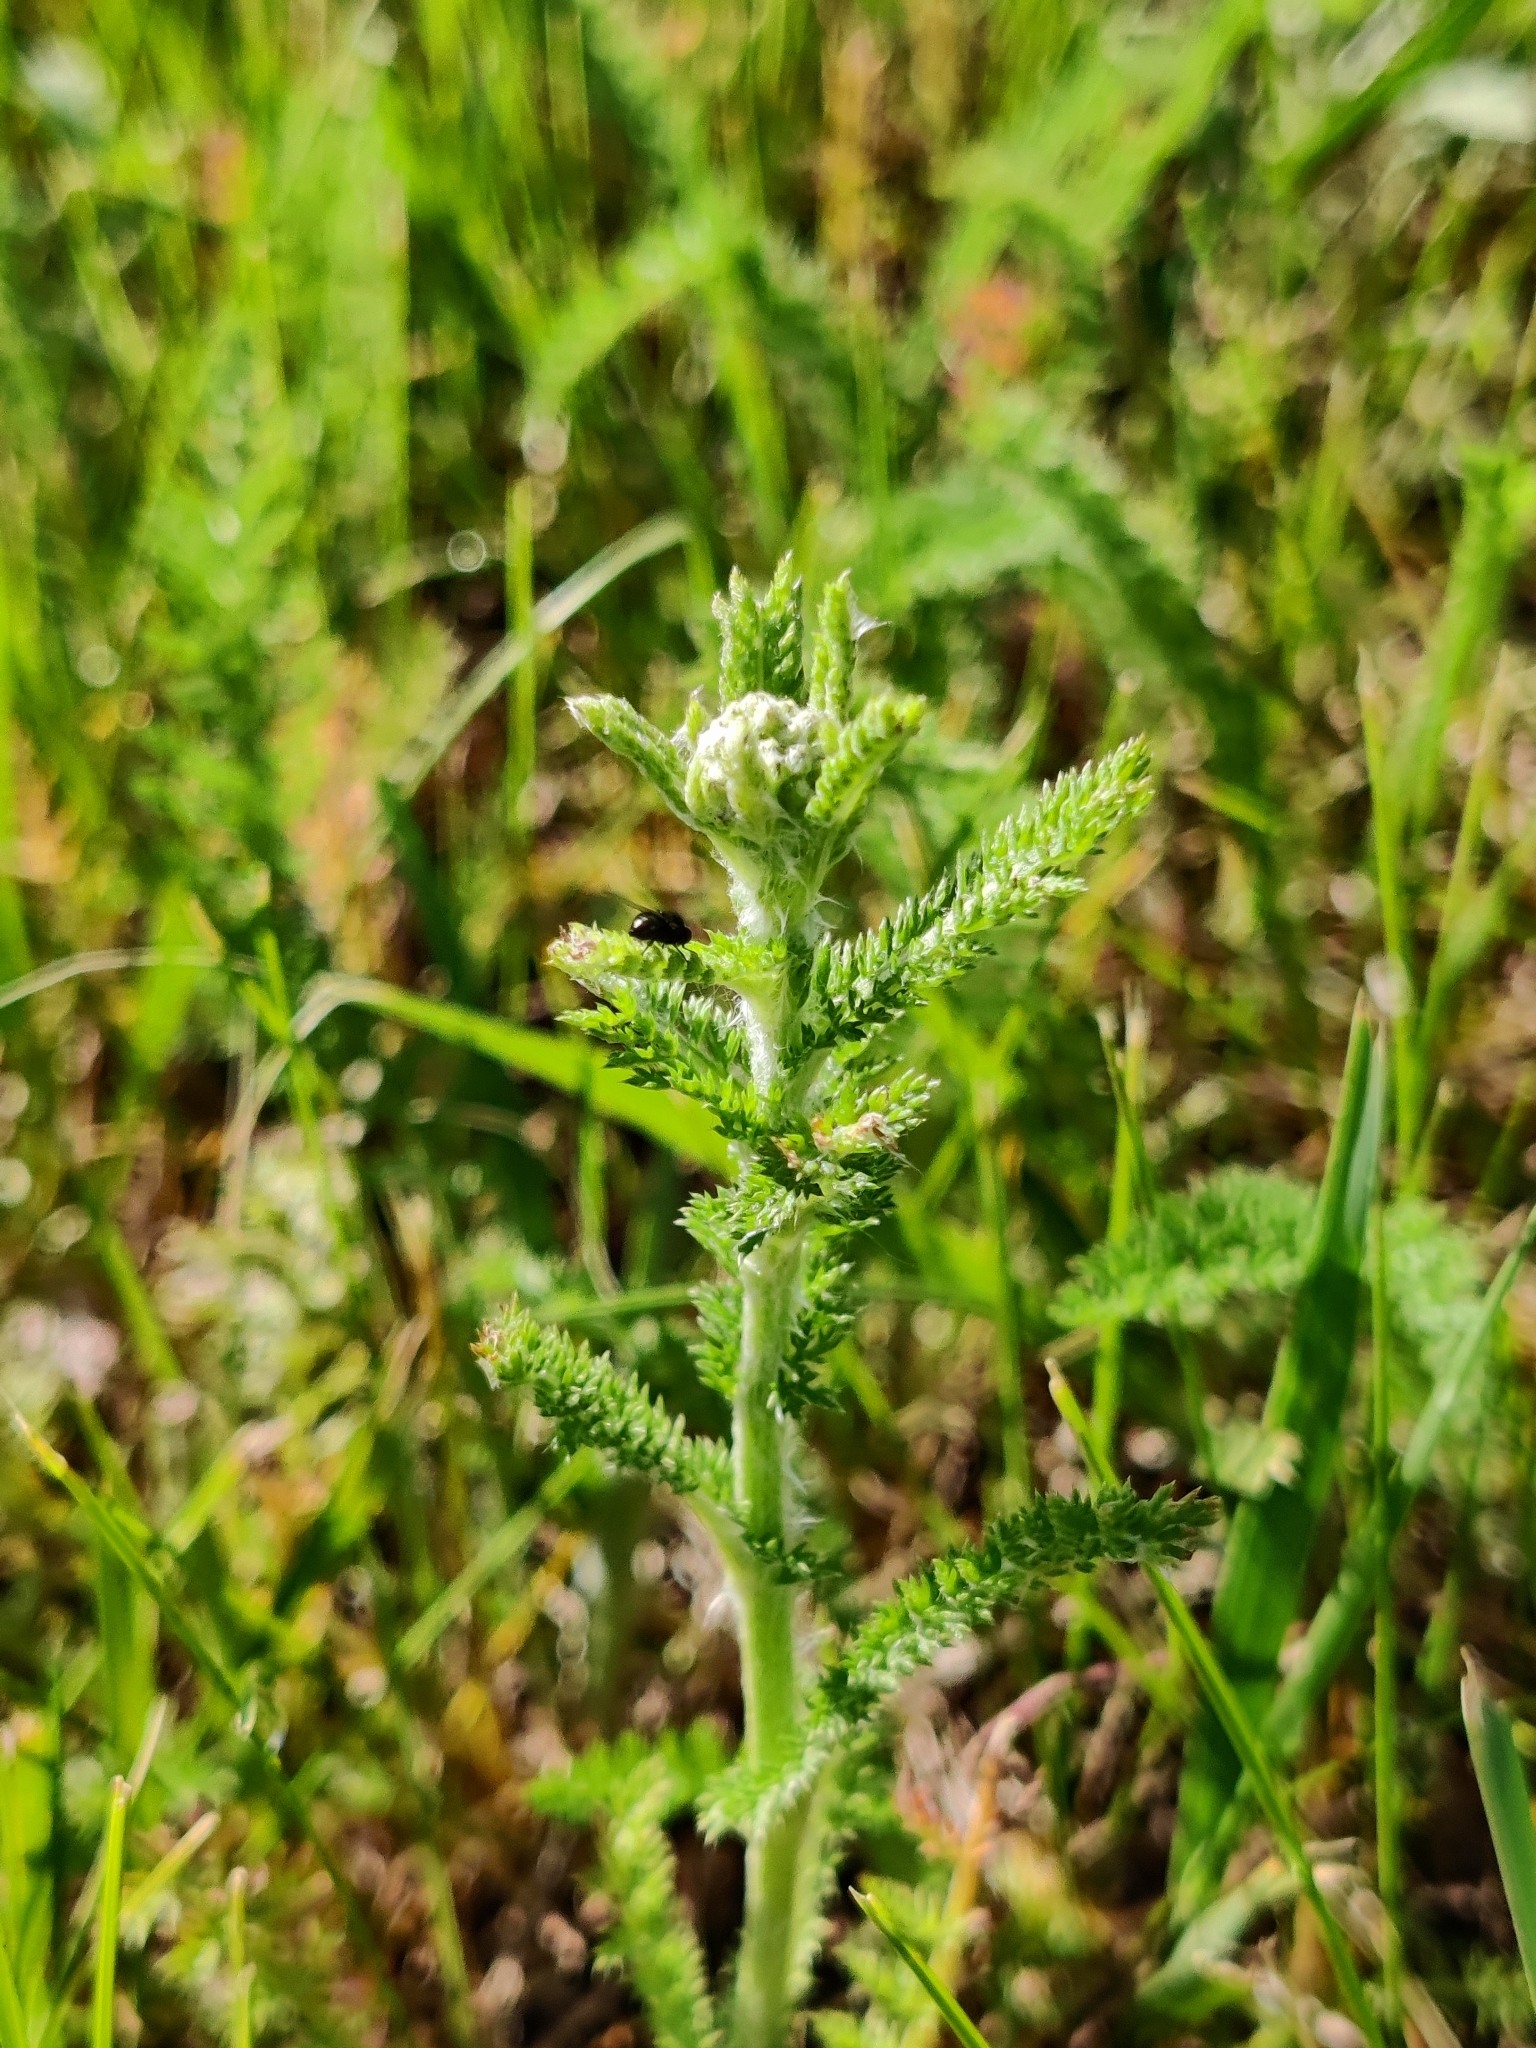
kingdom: Plantae
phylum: Tracheophyta
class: Magnoliopsida
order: Asterales
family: Asteraceae
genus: Achillea
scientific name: Achillea millefolium
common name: Yarrow
